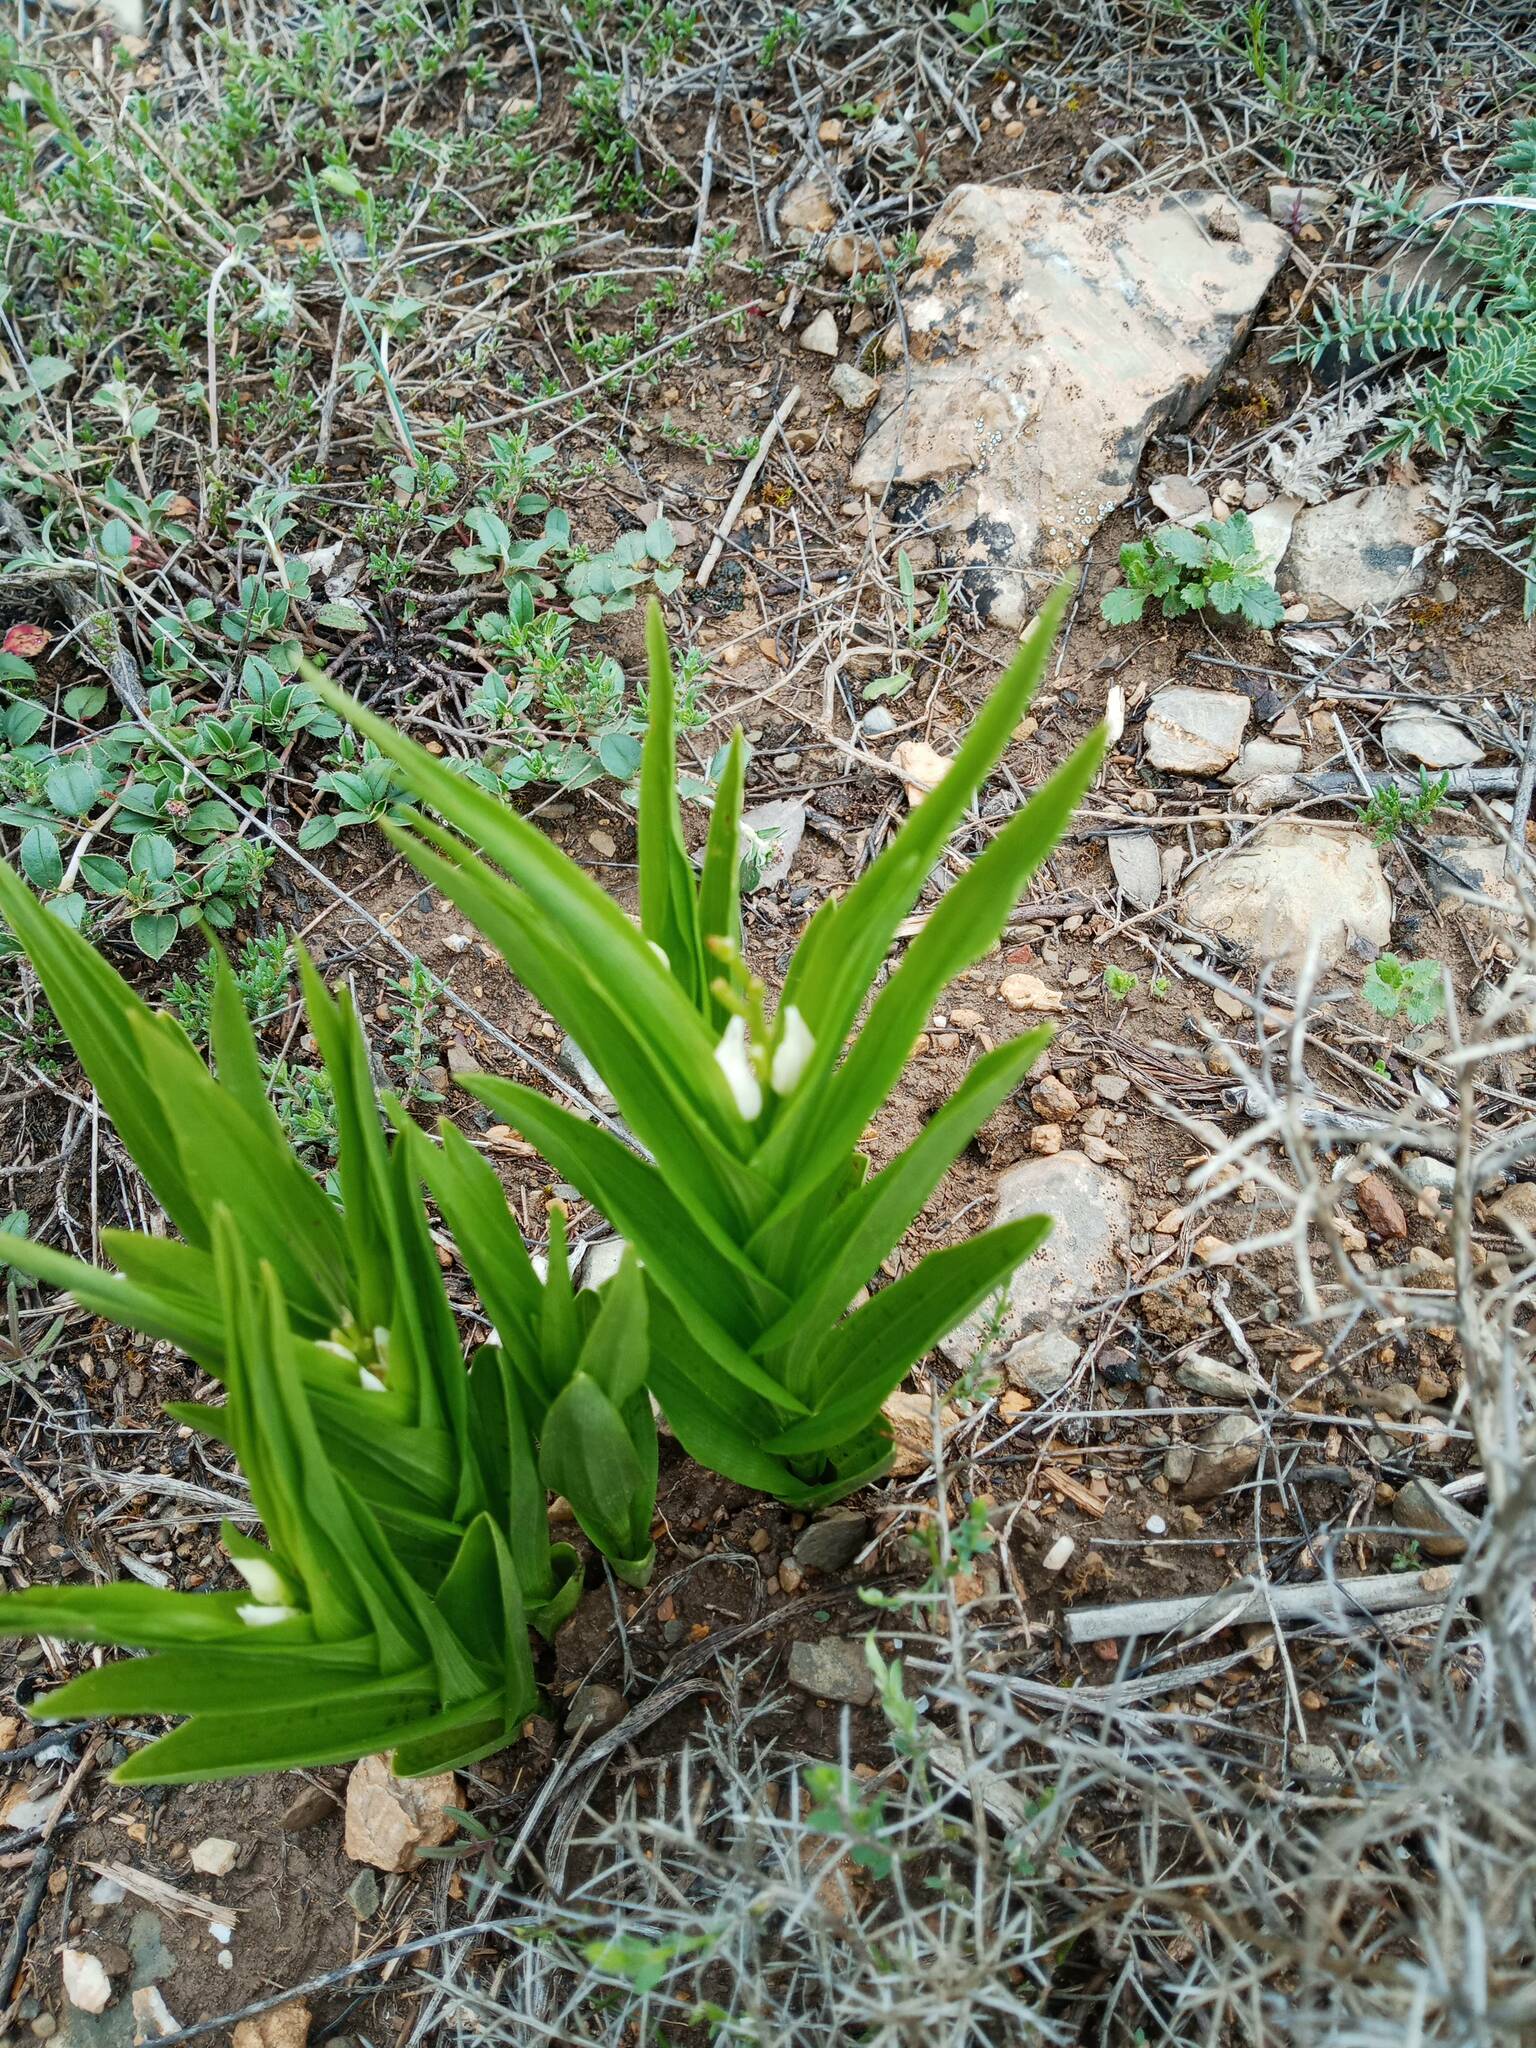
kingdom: Plantae
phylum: Tracheophyta
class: Liliopsida
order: Asparagales
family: Orchidaceae
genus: Cephalanthera
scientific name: Cephalanthera longifolia
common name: Narrow-leaved helleborine
